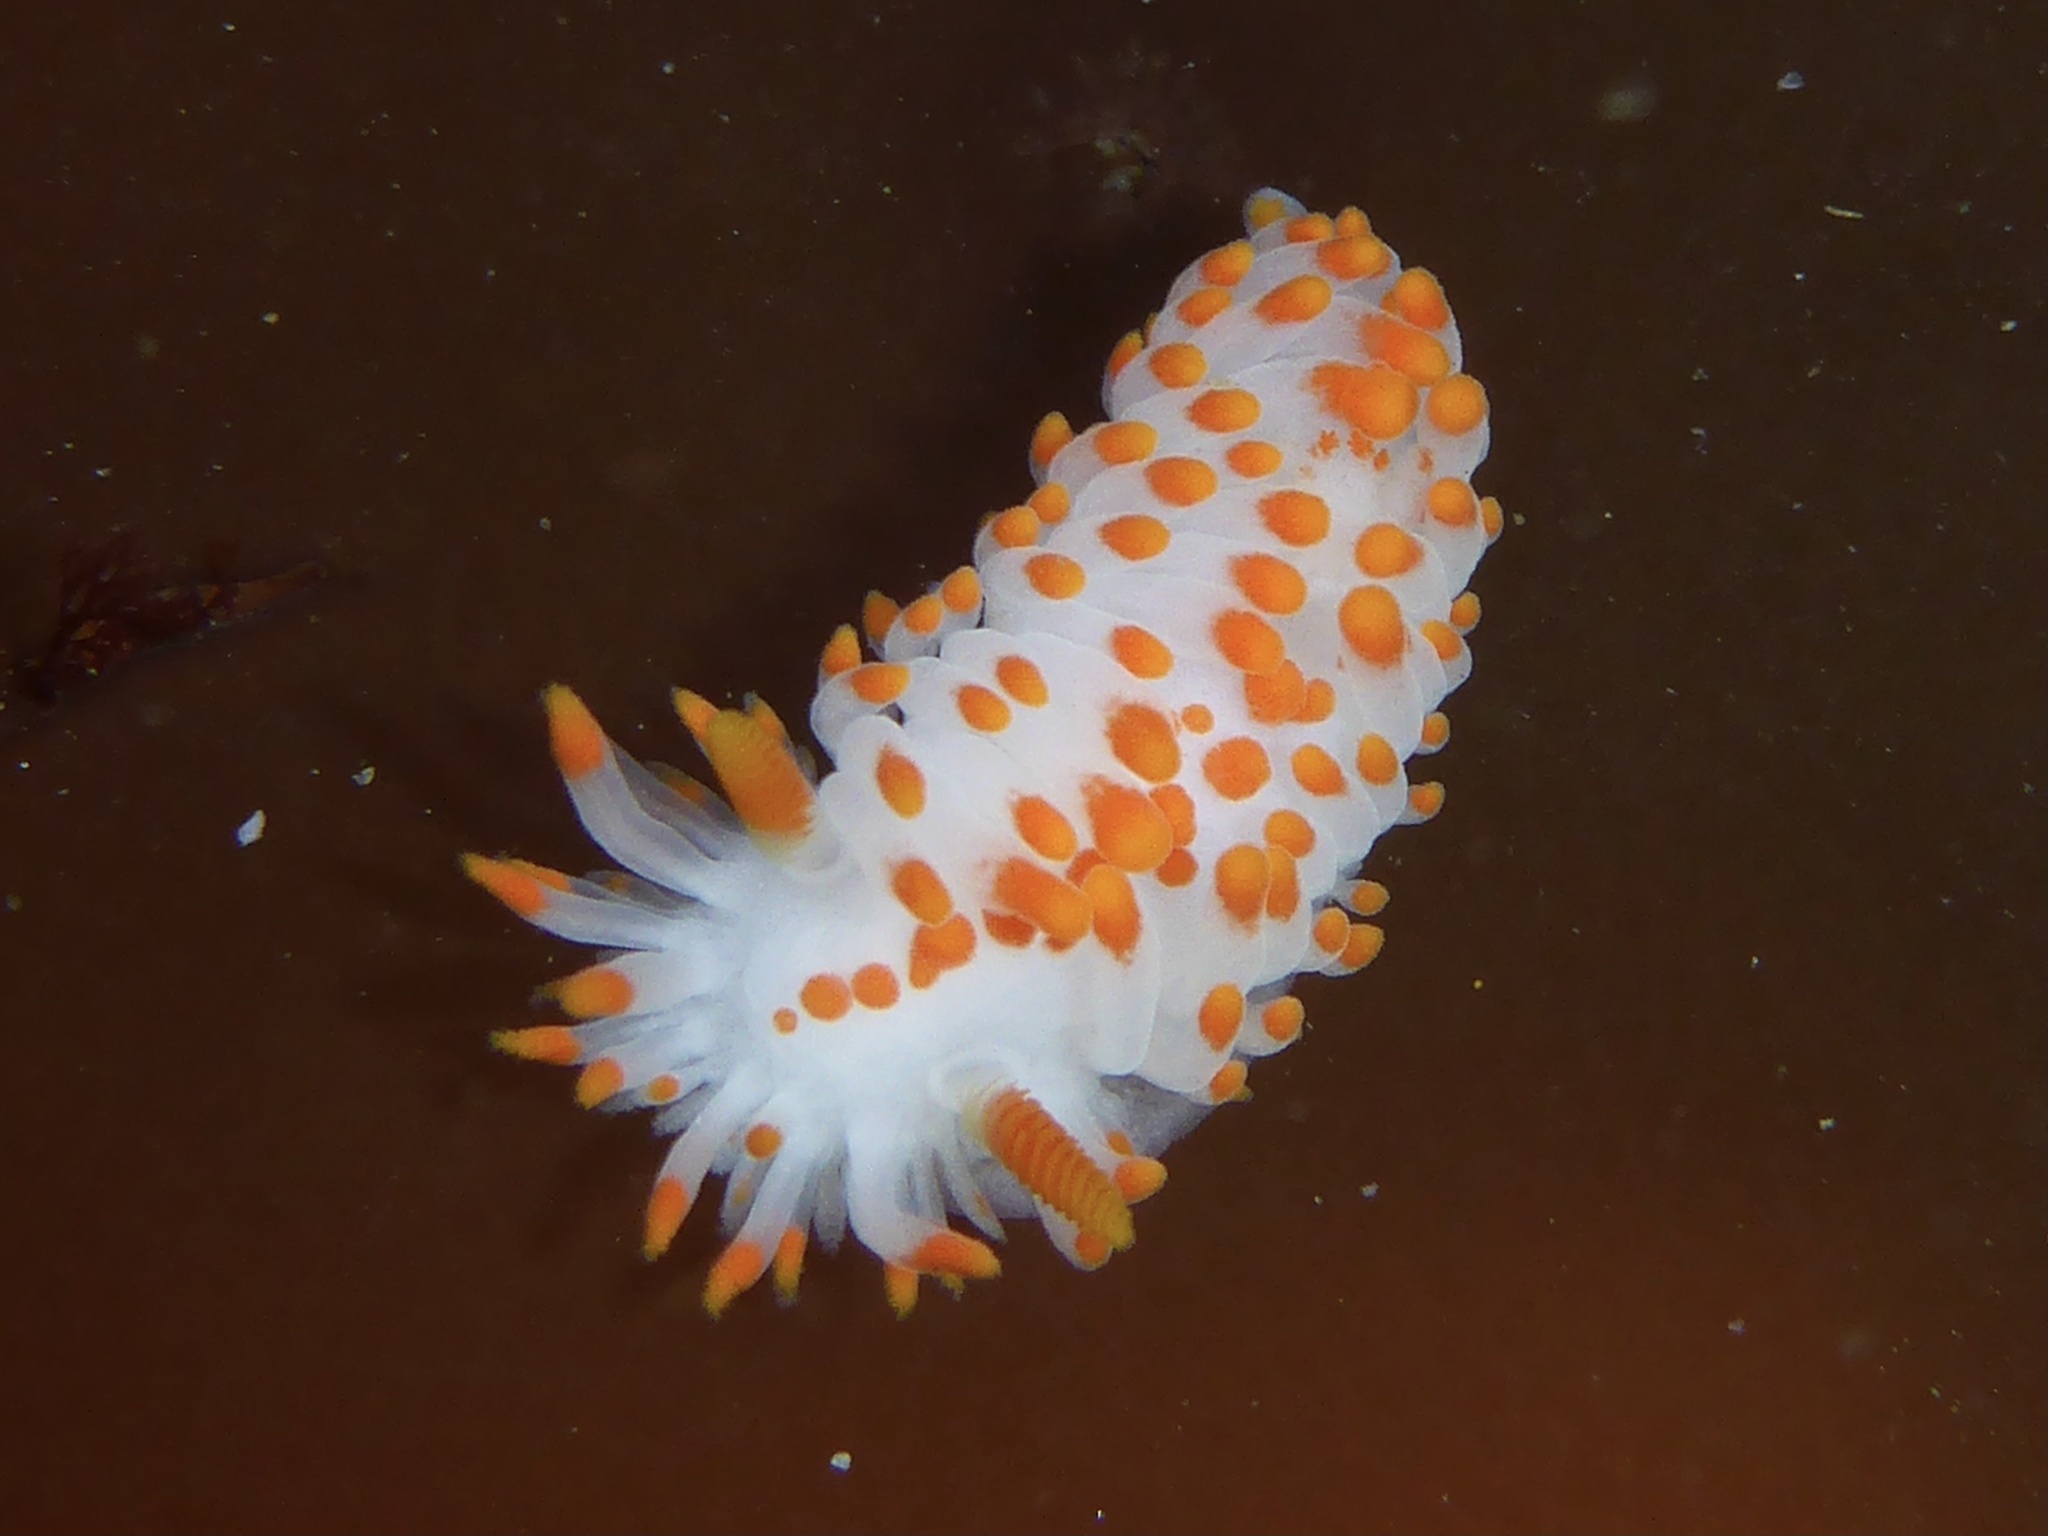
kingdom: Animalia
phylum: Mollusca
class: Gastropoda
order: Nudibranchia
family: Polyceridae
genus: Limacia
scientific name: Limacia mcdonaldi
